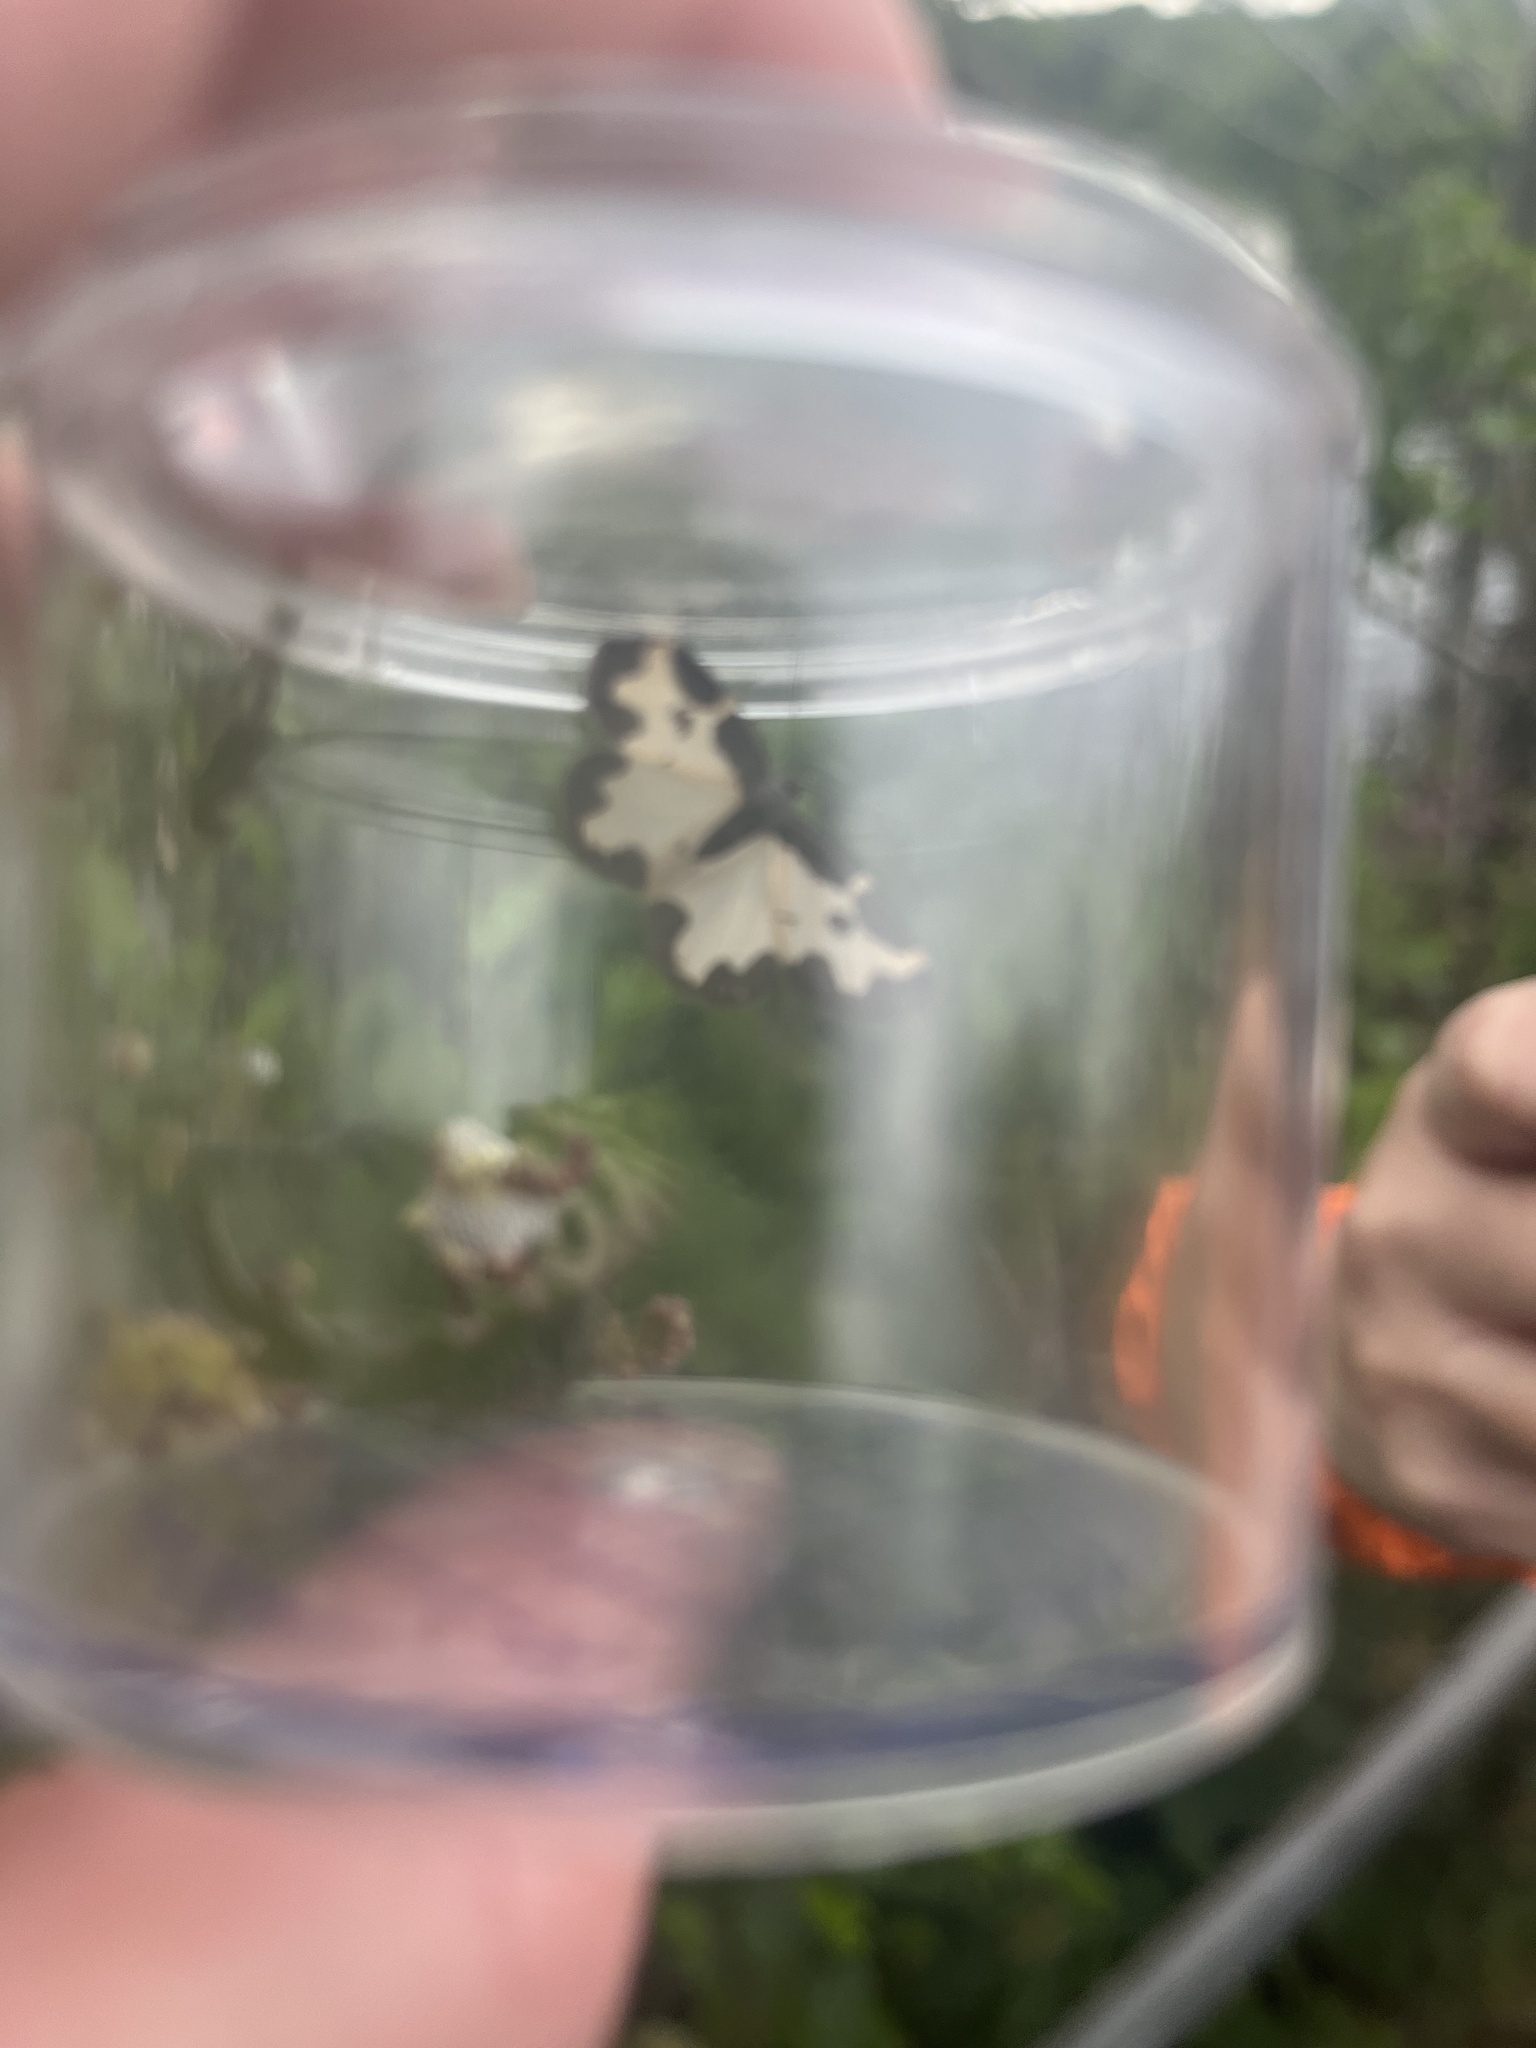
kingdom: Animalia
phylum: Arthropoda
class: Insecta
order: Lepidoptera
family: Geometridae
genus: Lomaspilis
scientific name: Lomaspilis marginata
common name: Clouded border
